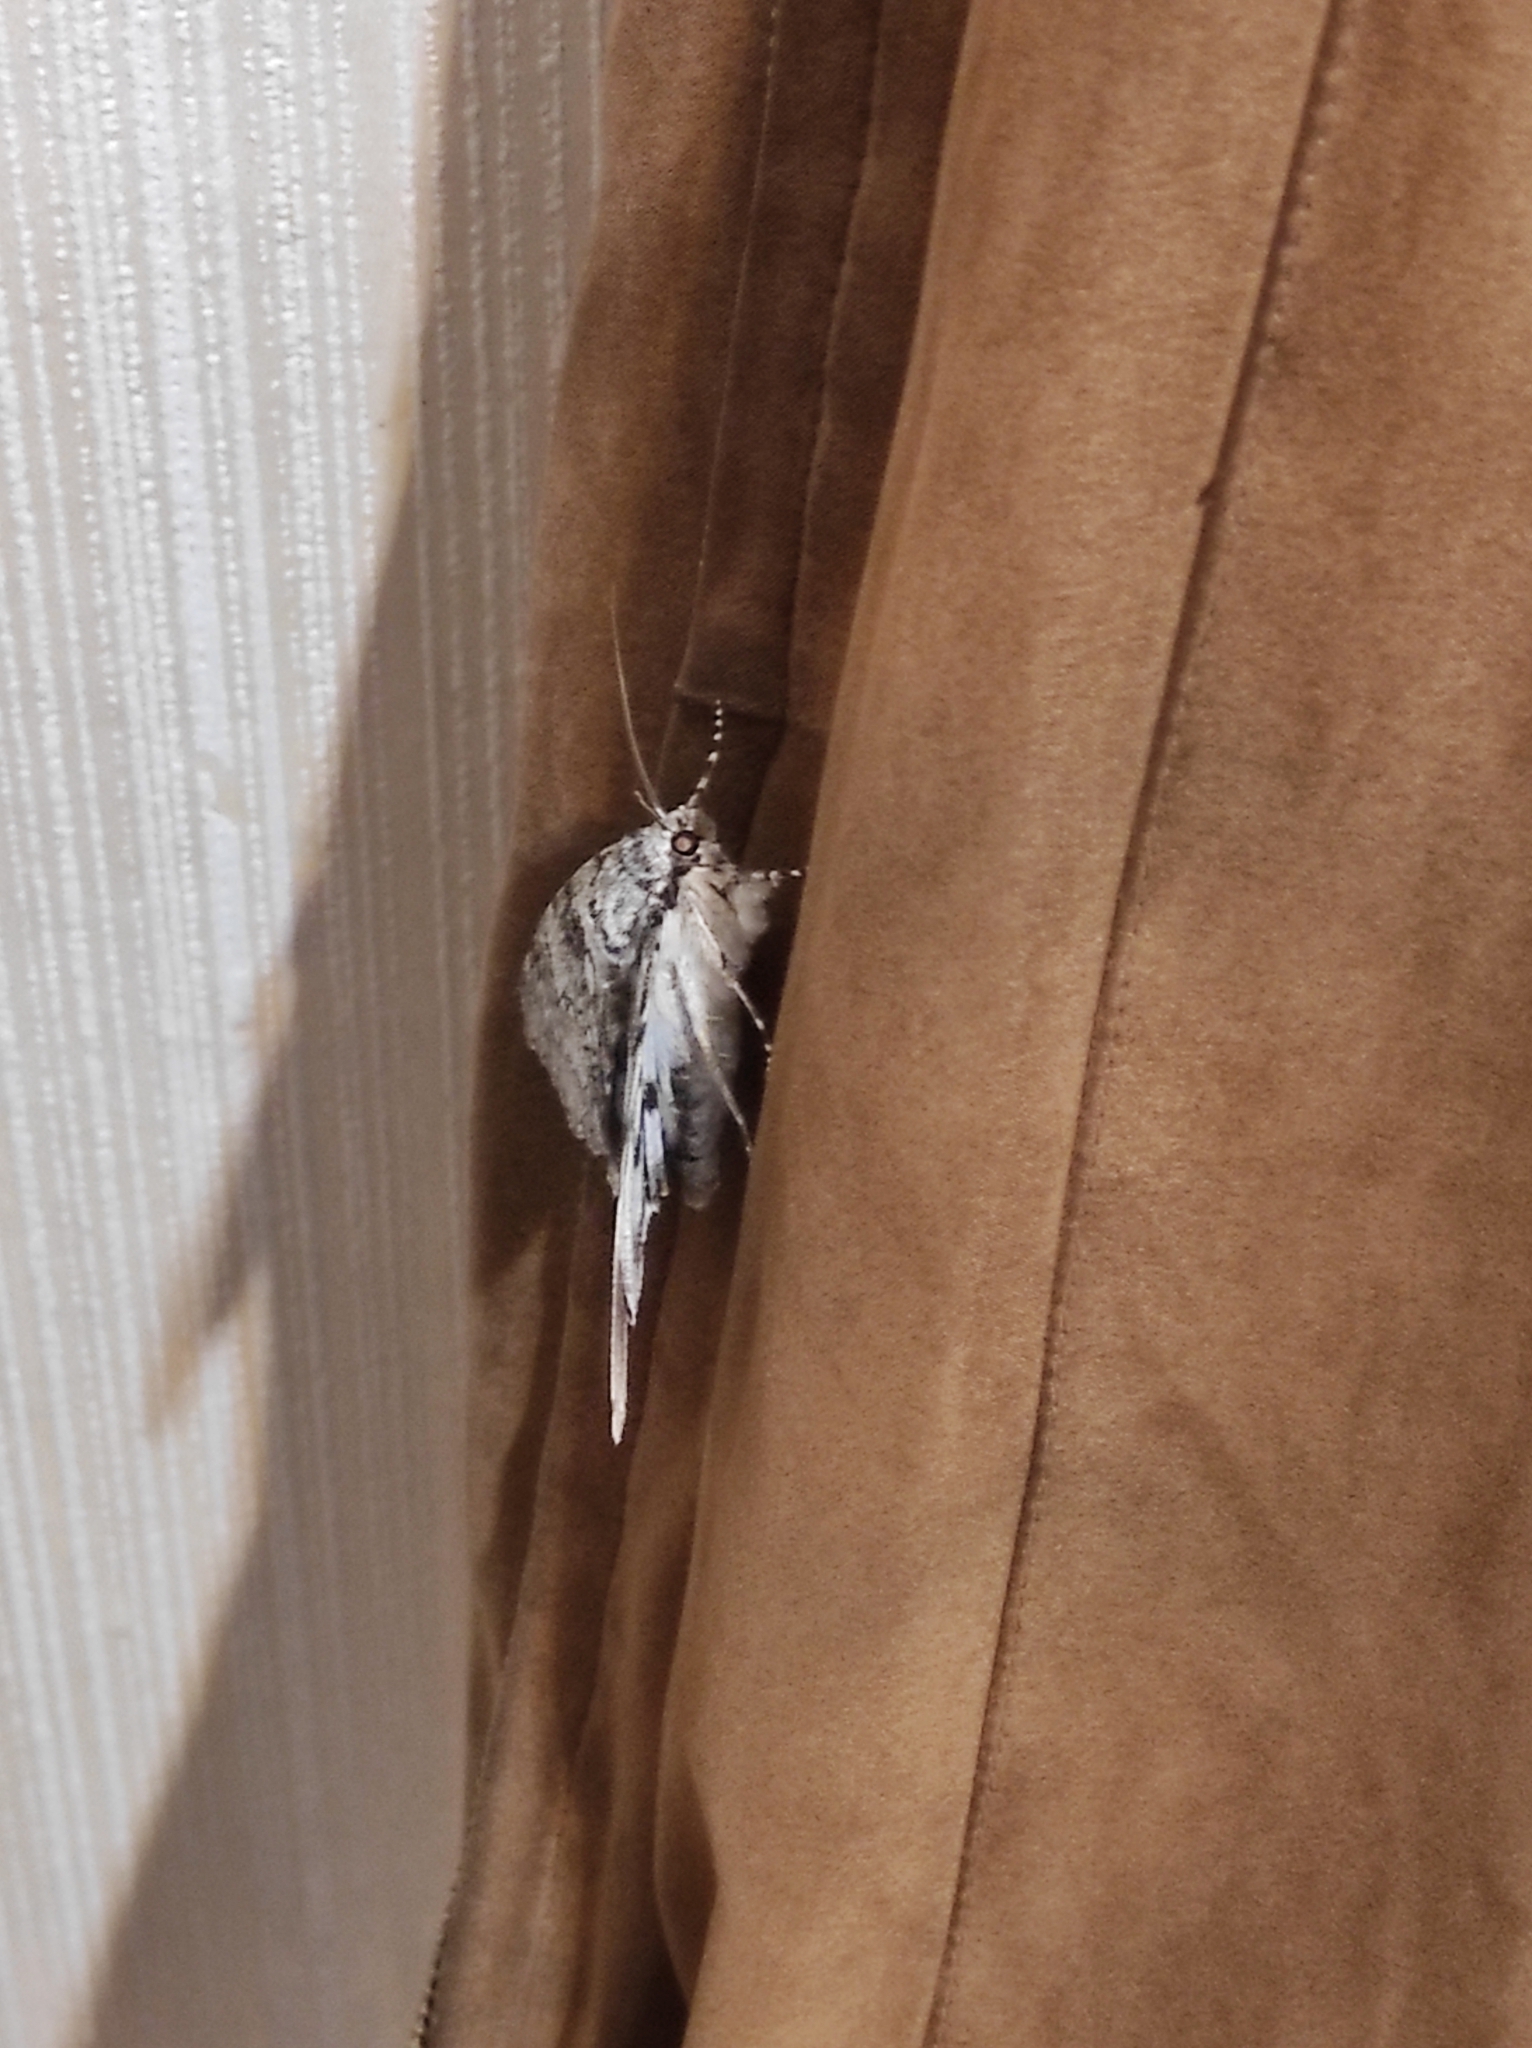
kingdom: Animalia
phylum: Arthropoda
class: Insecta
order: Lepidoptera
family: Erebidae
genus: Catocala
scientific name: Catocala fraxini
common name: Clifden nonpareil
